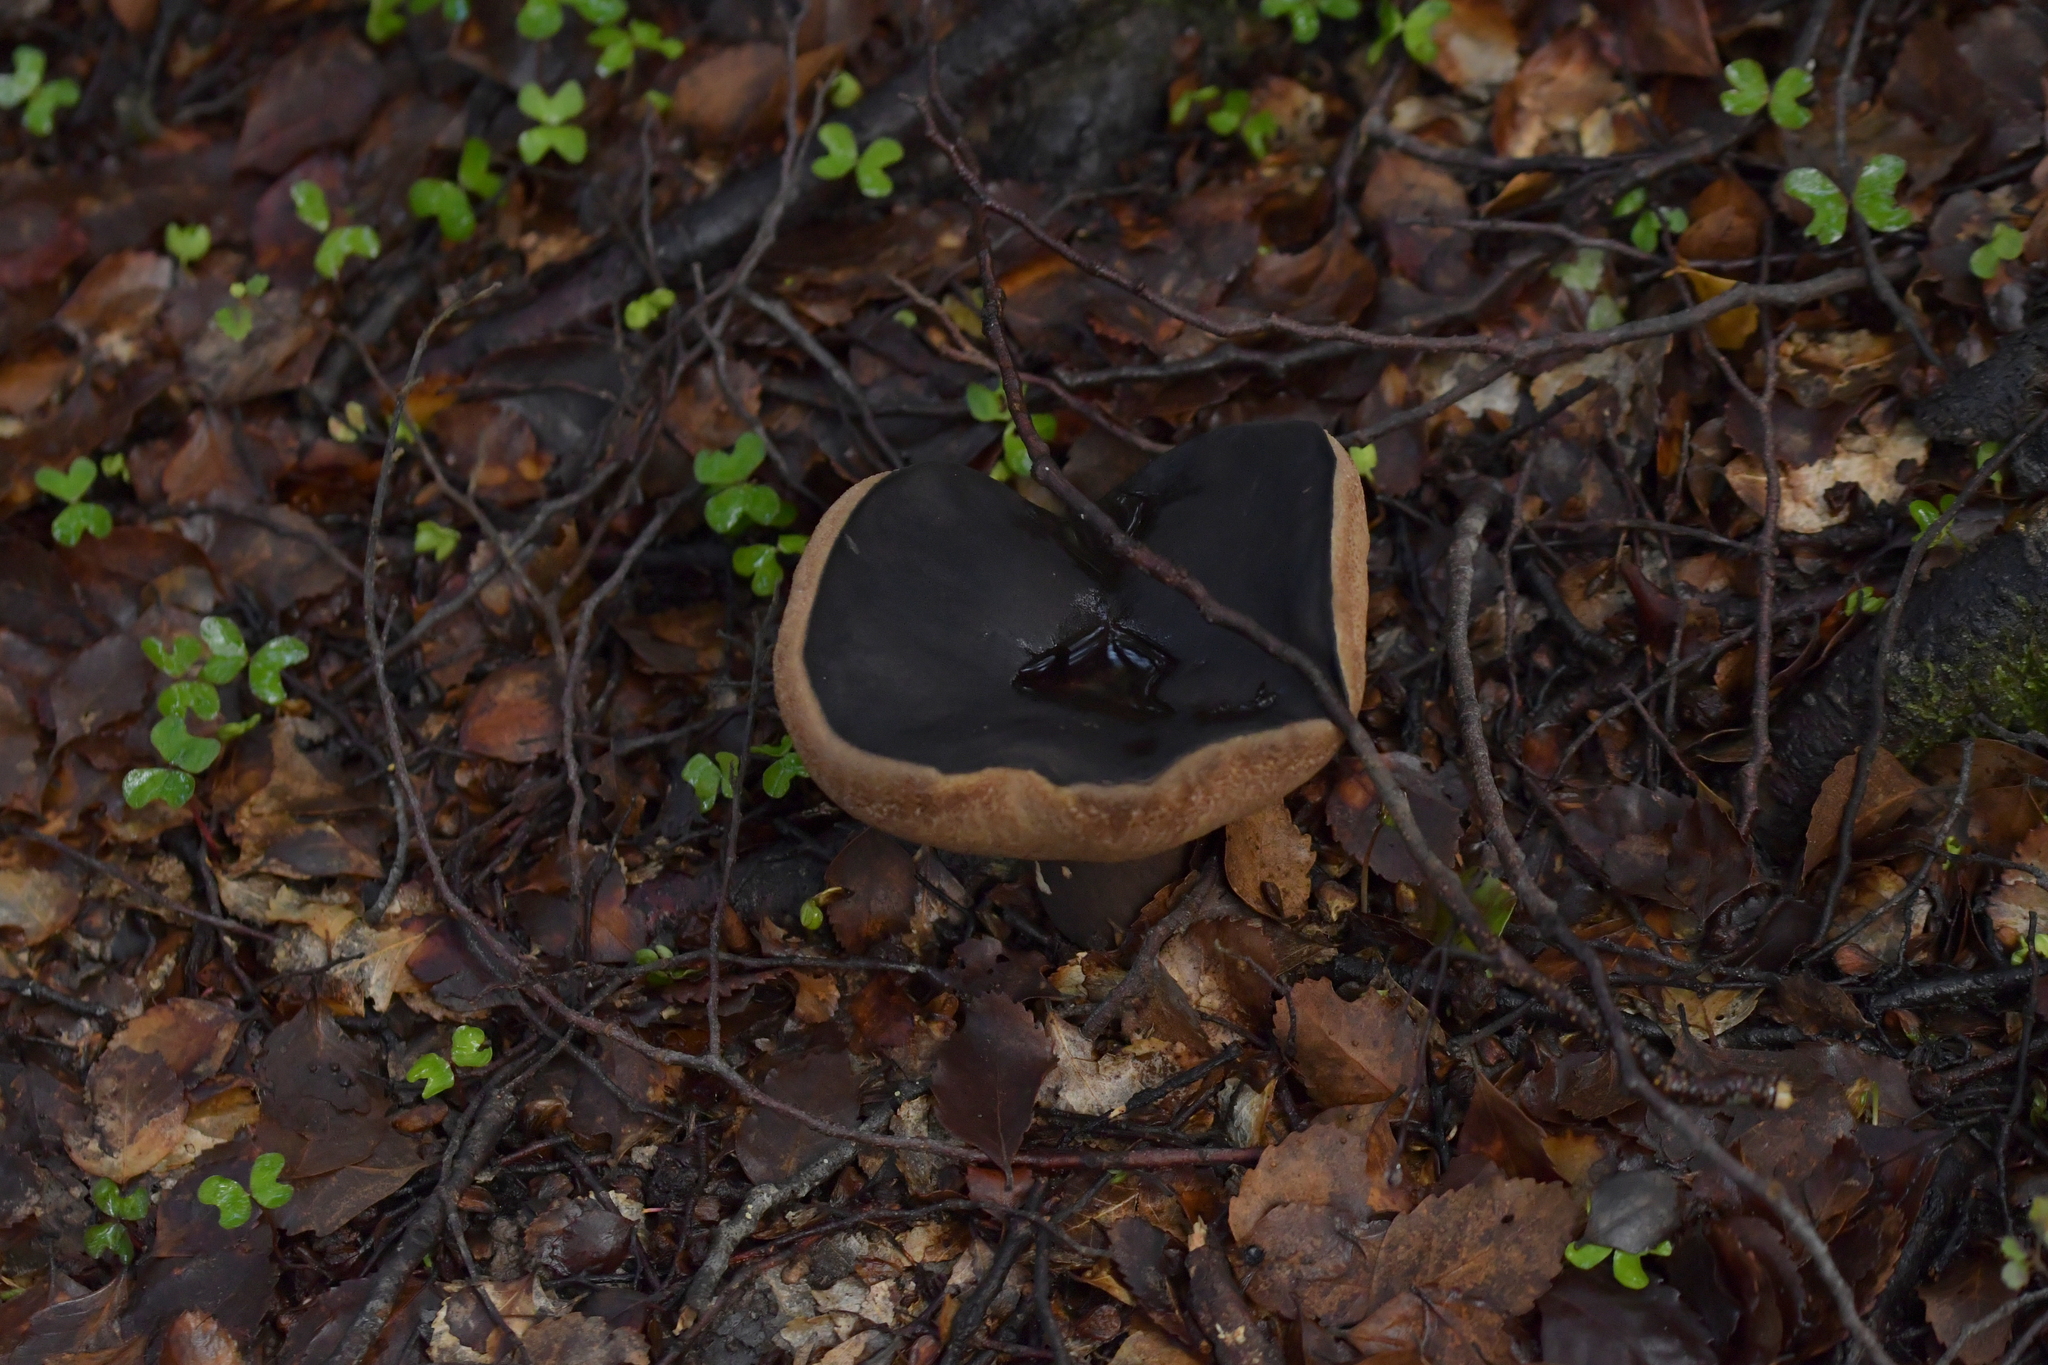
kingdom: Fungi
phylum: Basidiomycota
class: Agaricomycetes
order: Boletales
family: Boletaceae
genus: Porphyrellus
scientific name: Porphyrellus formosus
